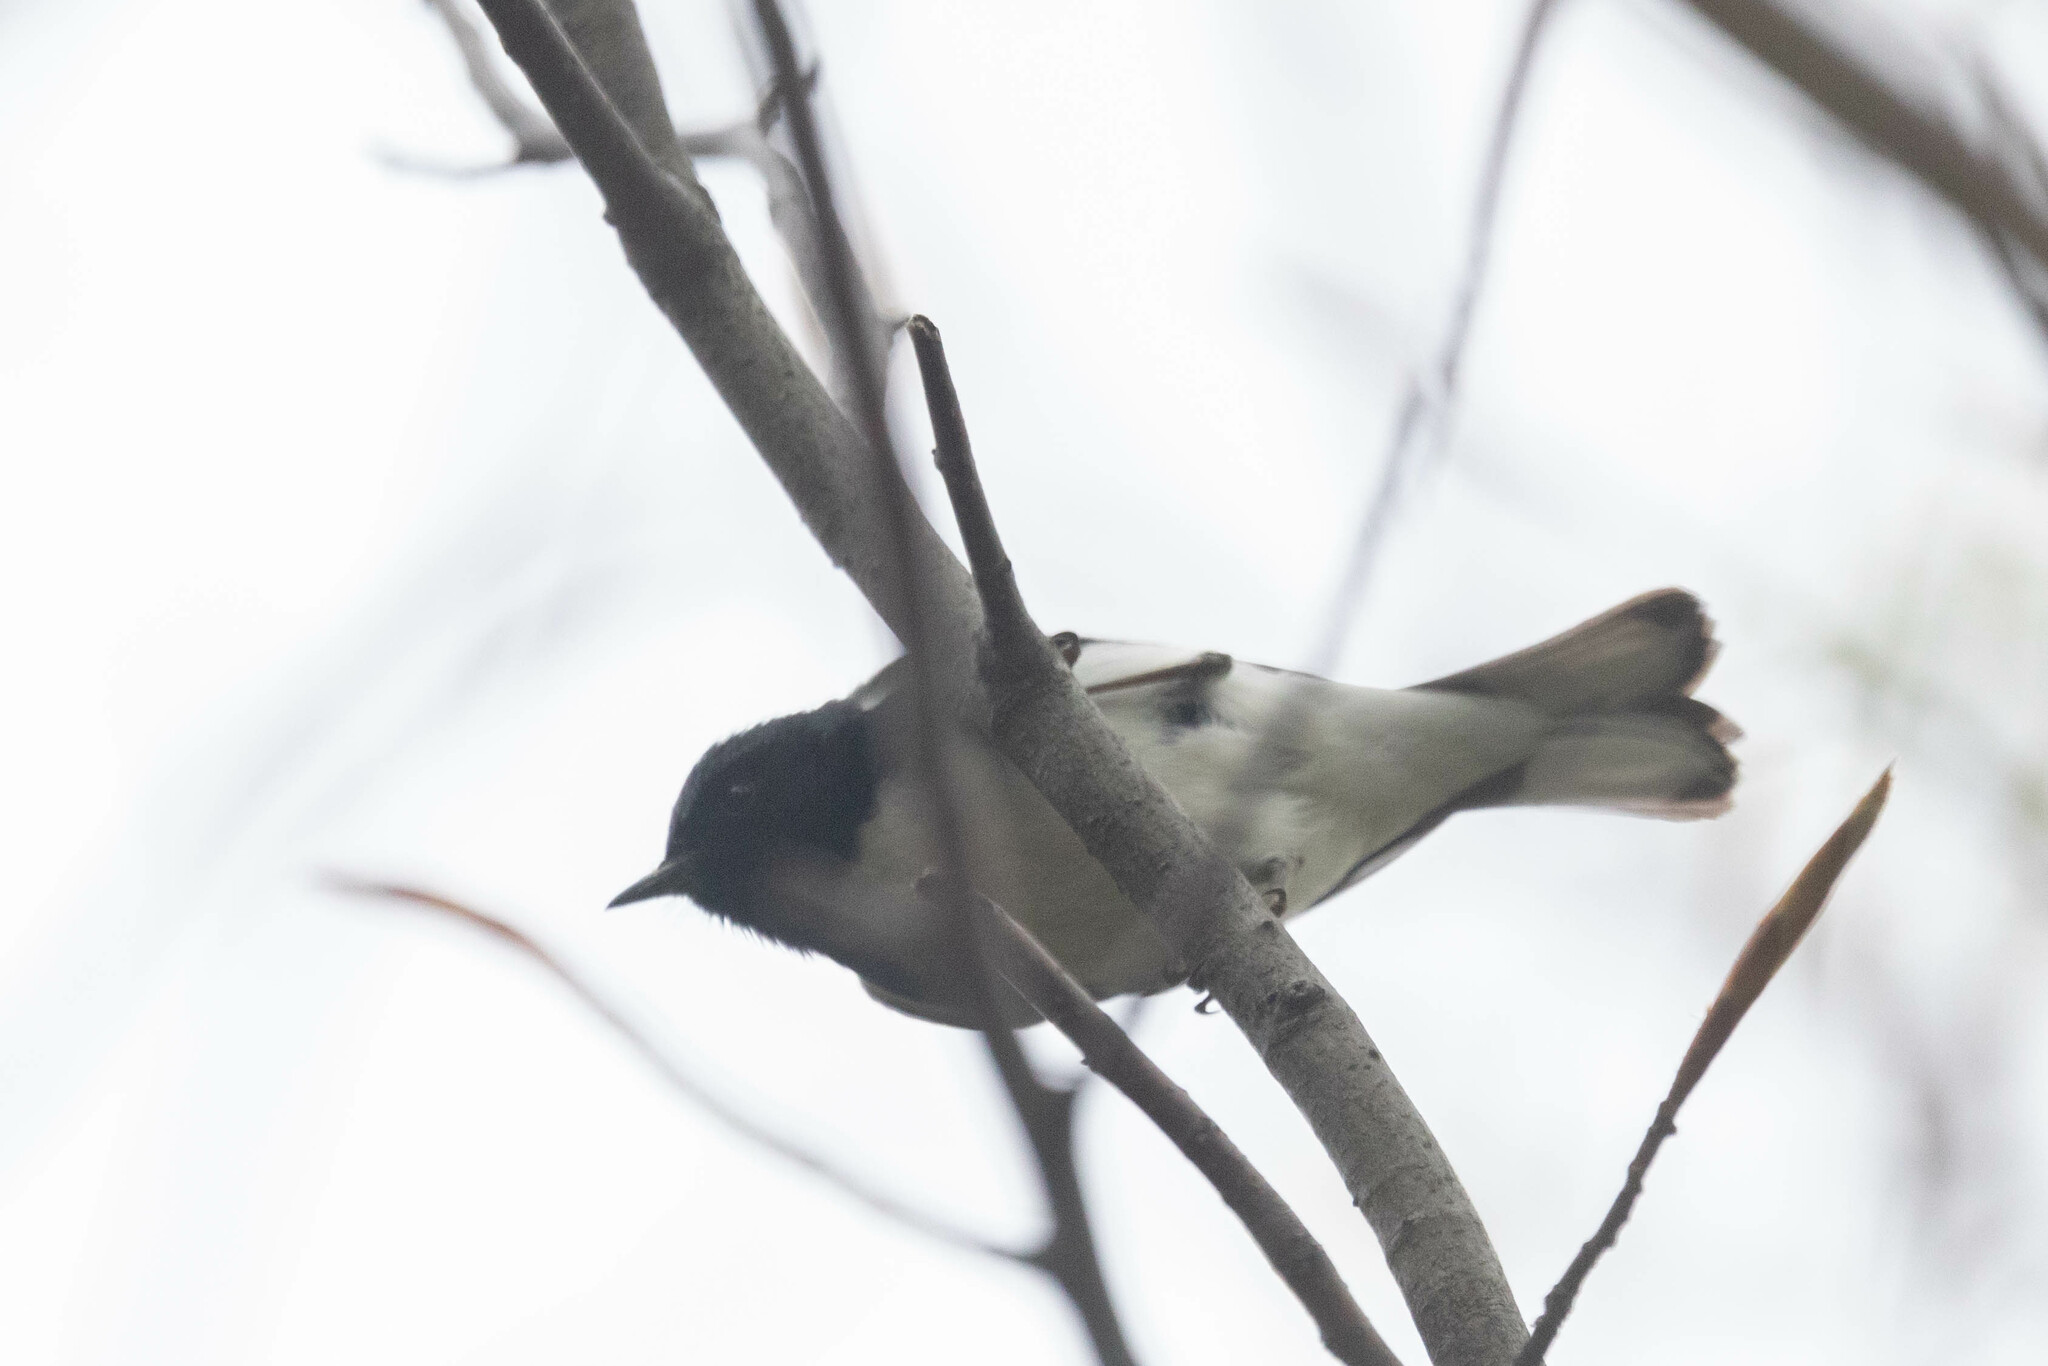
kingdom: Animalia
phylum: Chordata
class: Aves
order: Passeriformes
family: Parulidae
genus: Setophaga
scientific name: Setophaga caerulescens
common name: Black-throated blue warbler
